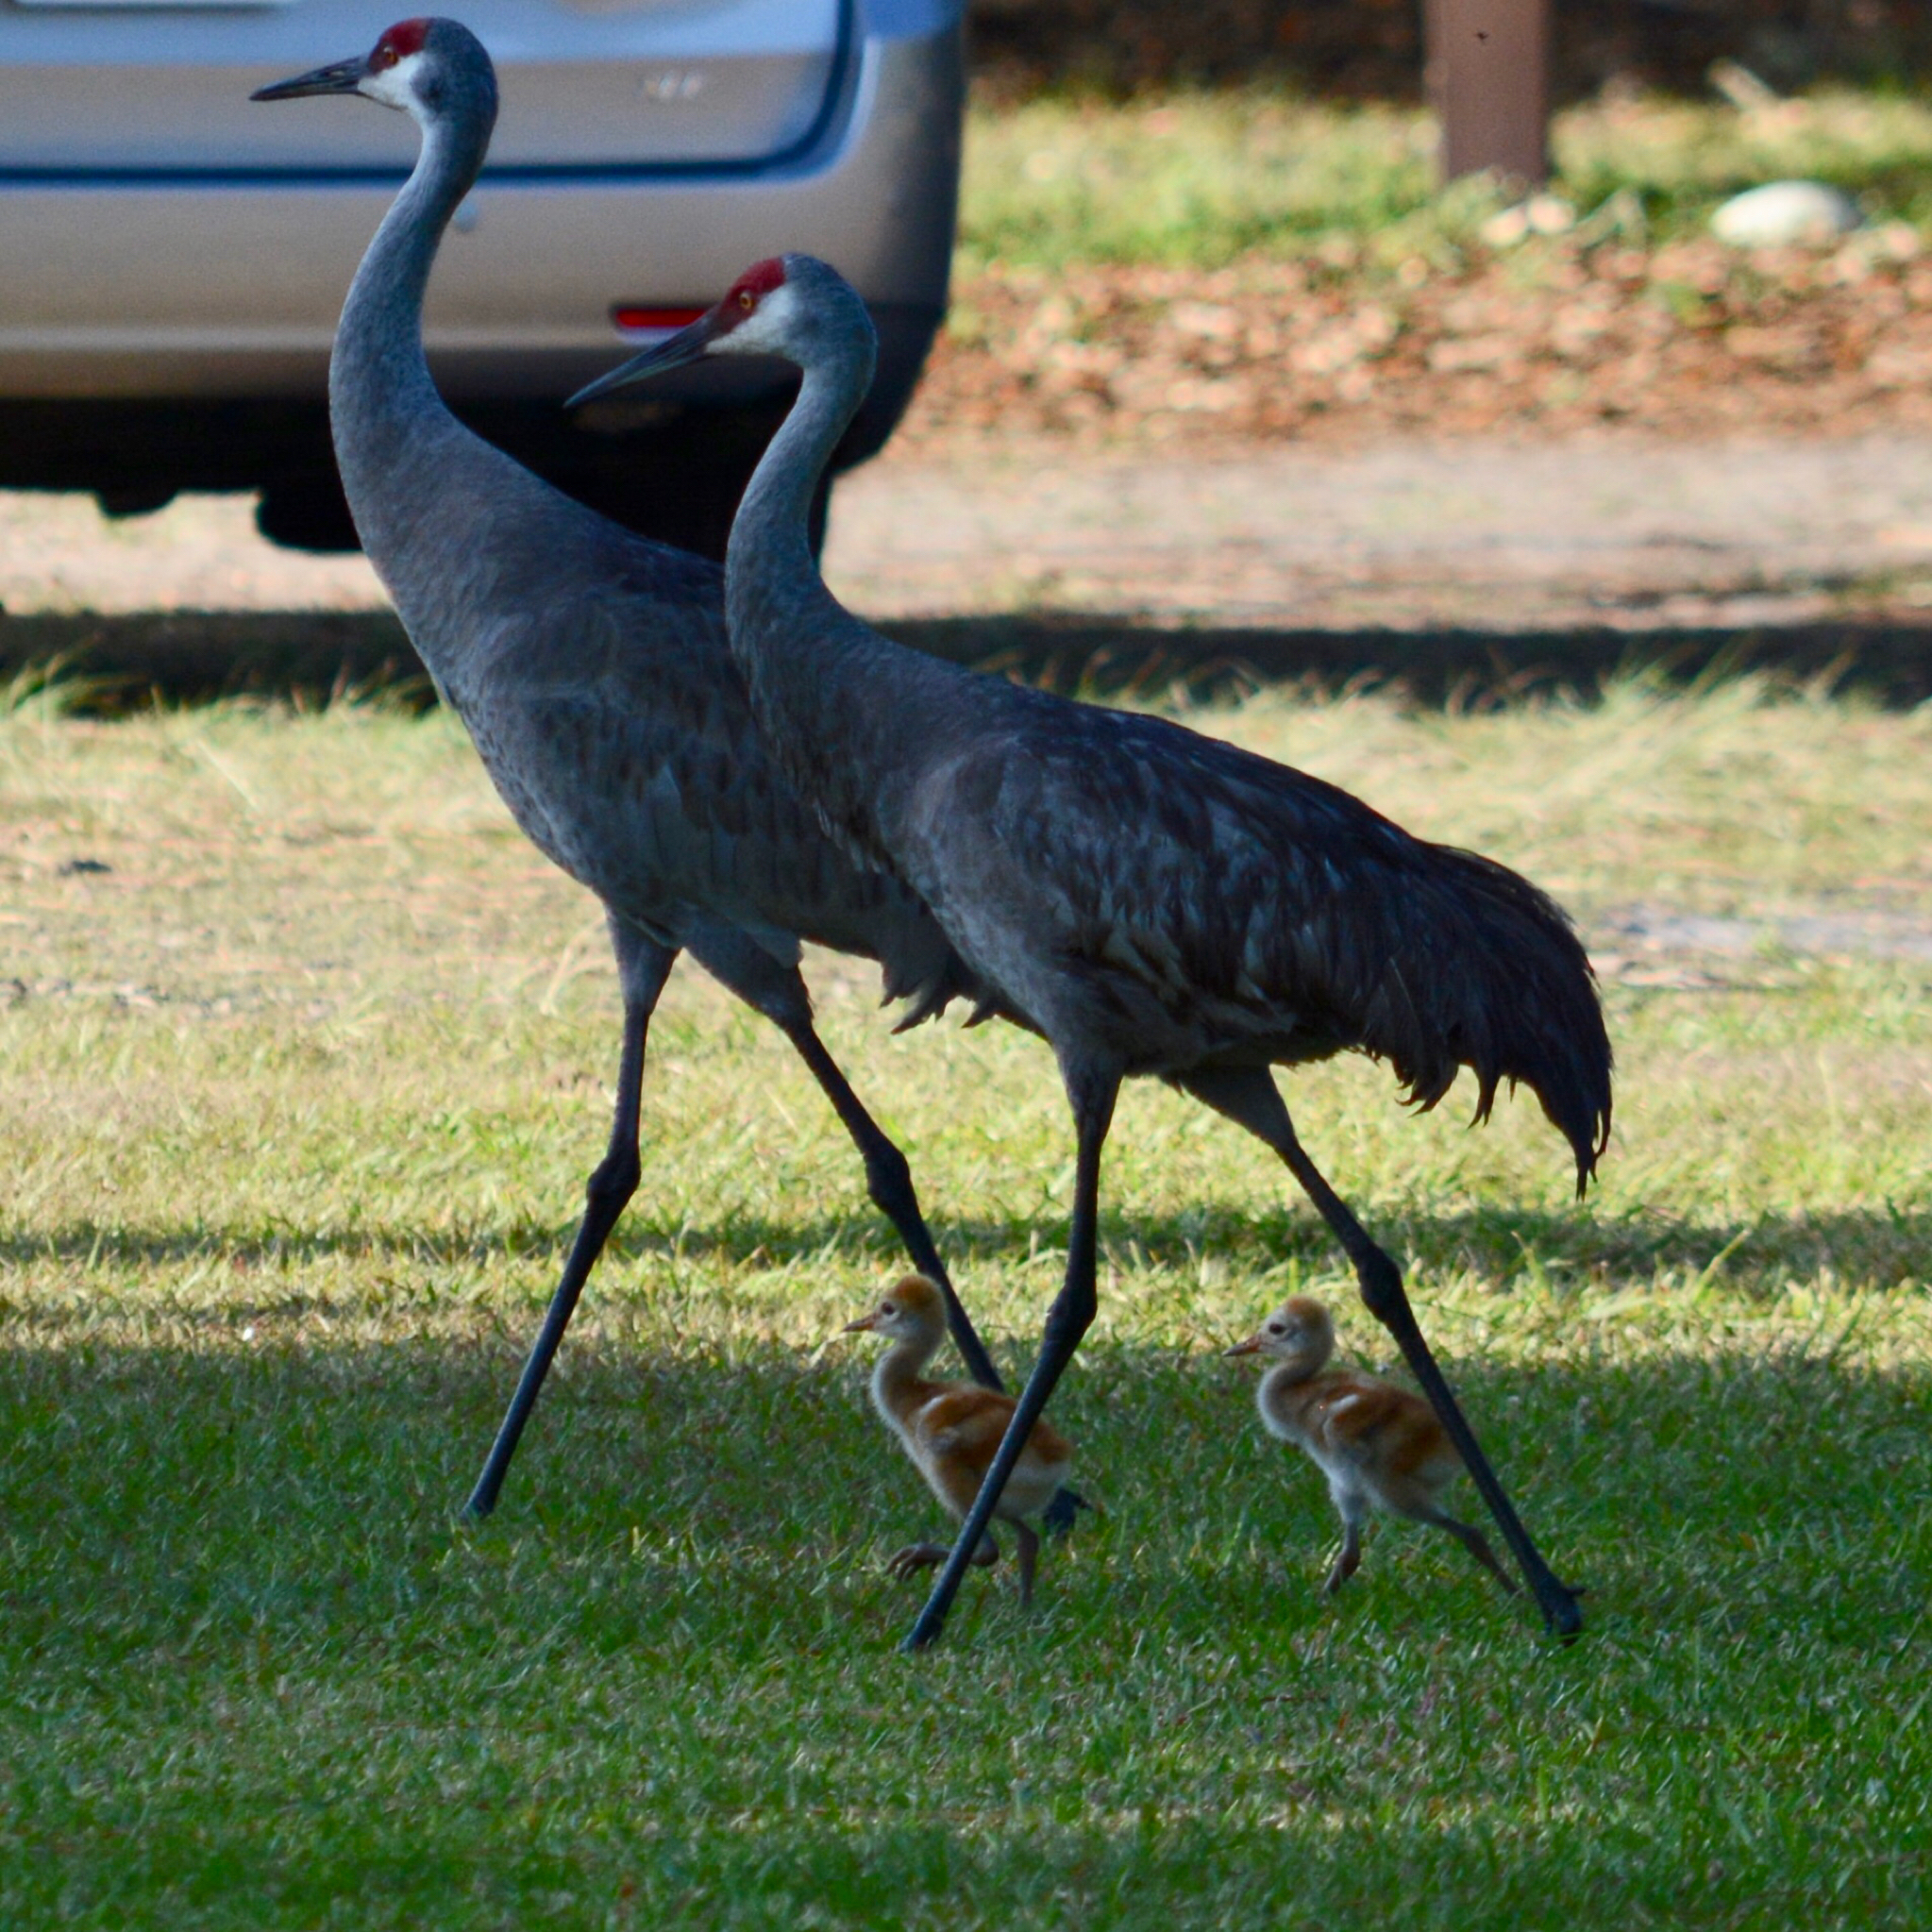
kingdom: Animalia
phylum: Chordata
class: Aves
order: Gruiformes
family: Gruidae
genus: Grus
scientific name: Grus canadensis
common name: Sandhill crane
